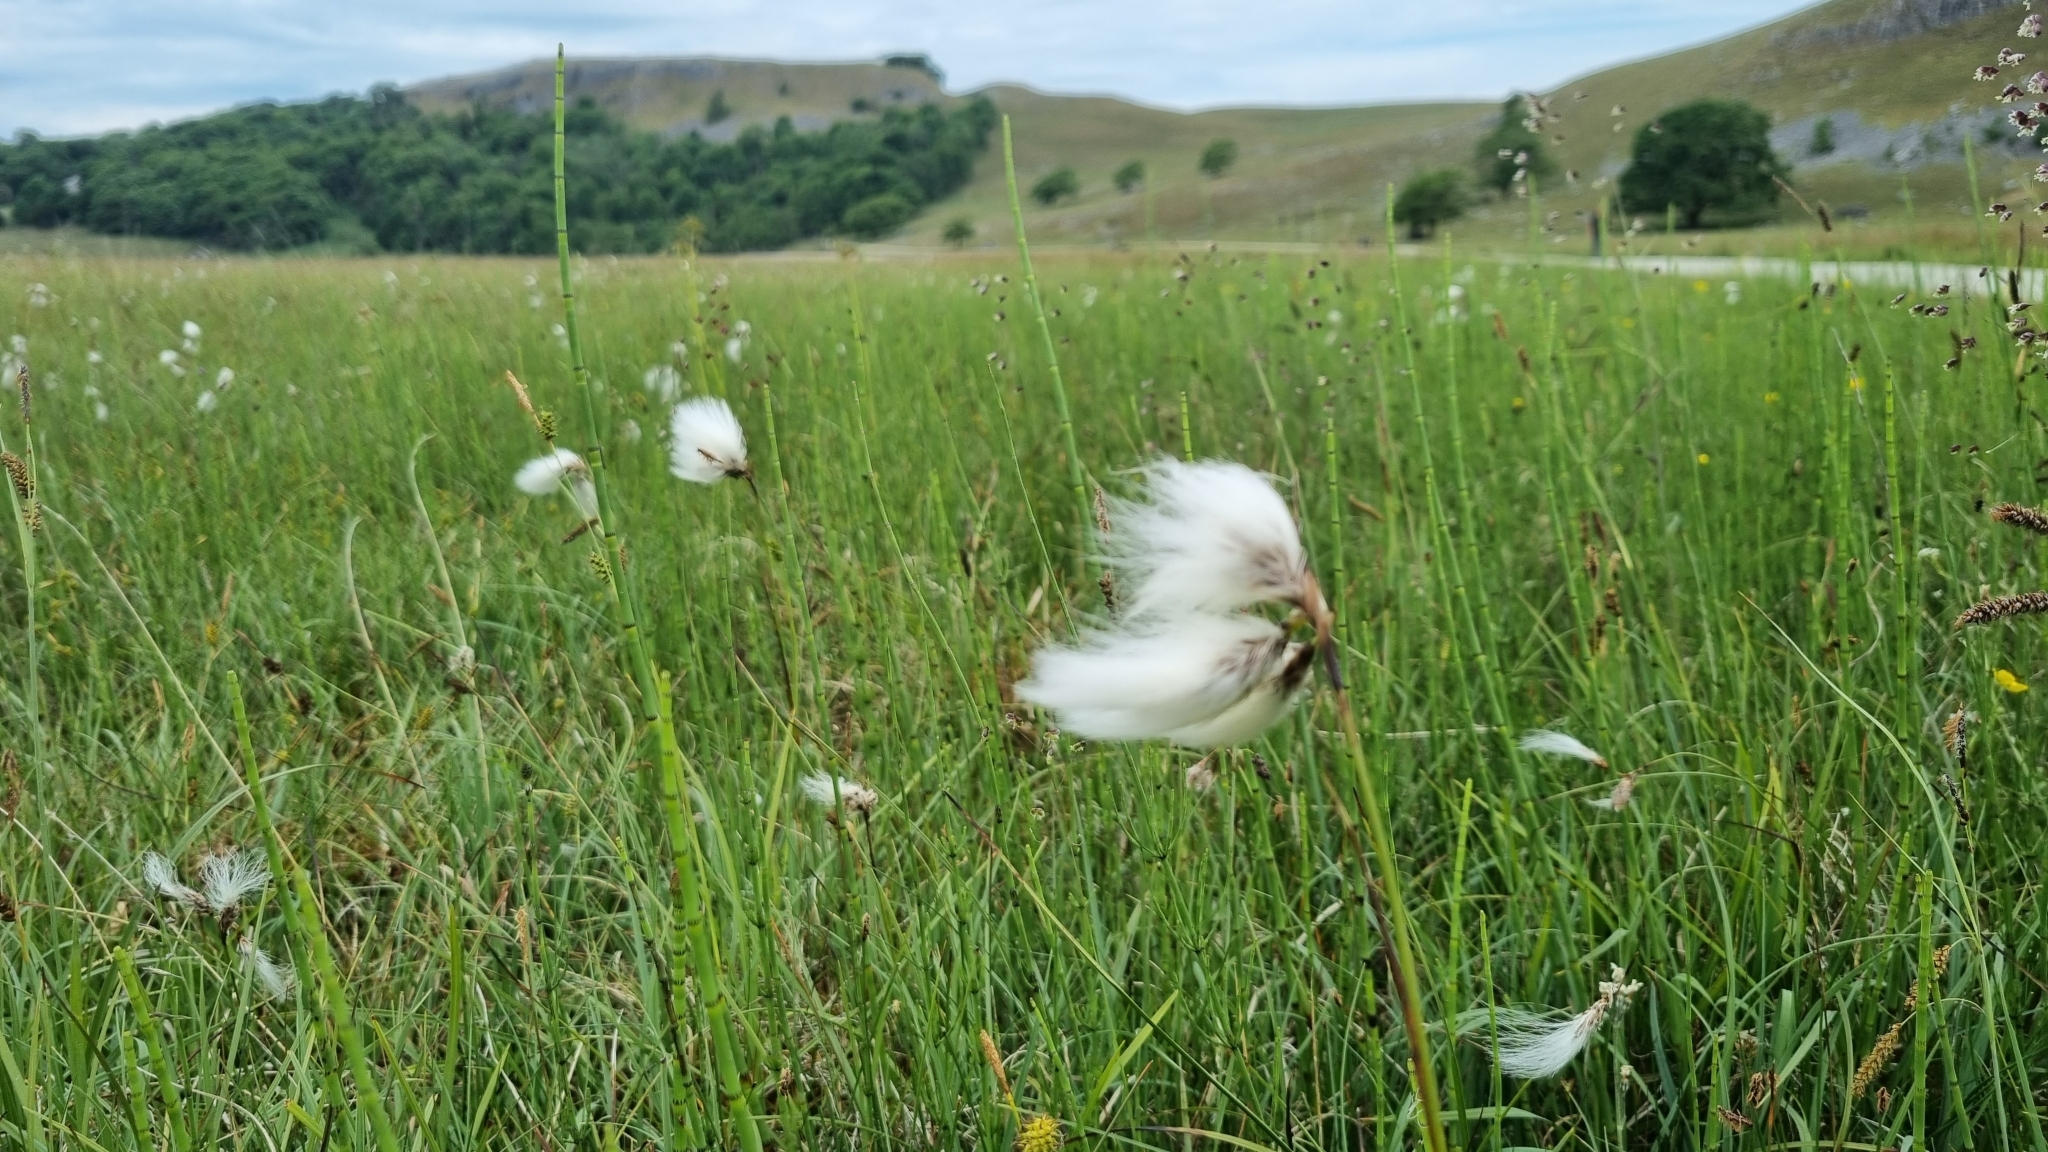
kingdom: Plantae
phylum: Tracheophyta
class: Liliopsida
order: Poales
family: Cyperaceae
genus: Eriophorum
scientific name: Eriophorum angustifolium
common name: Common cottongrass
